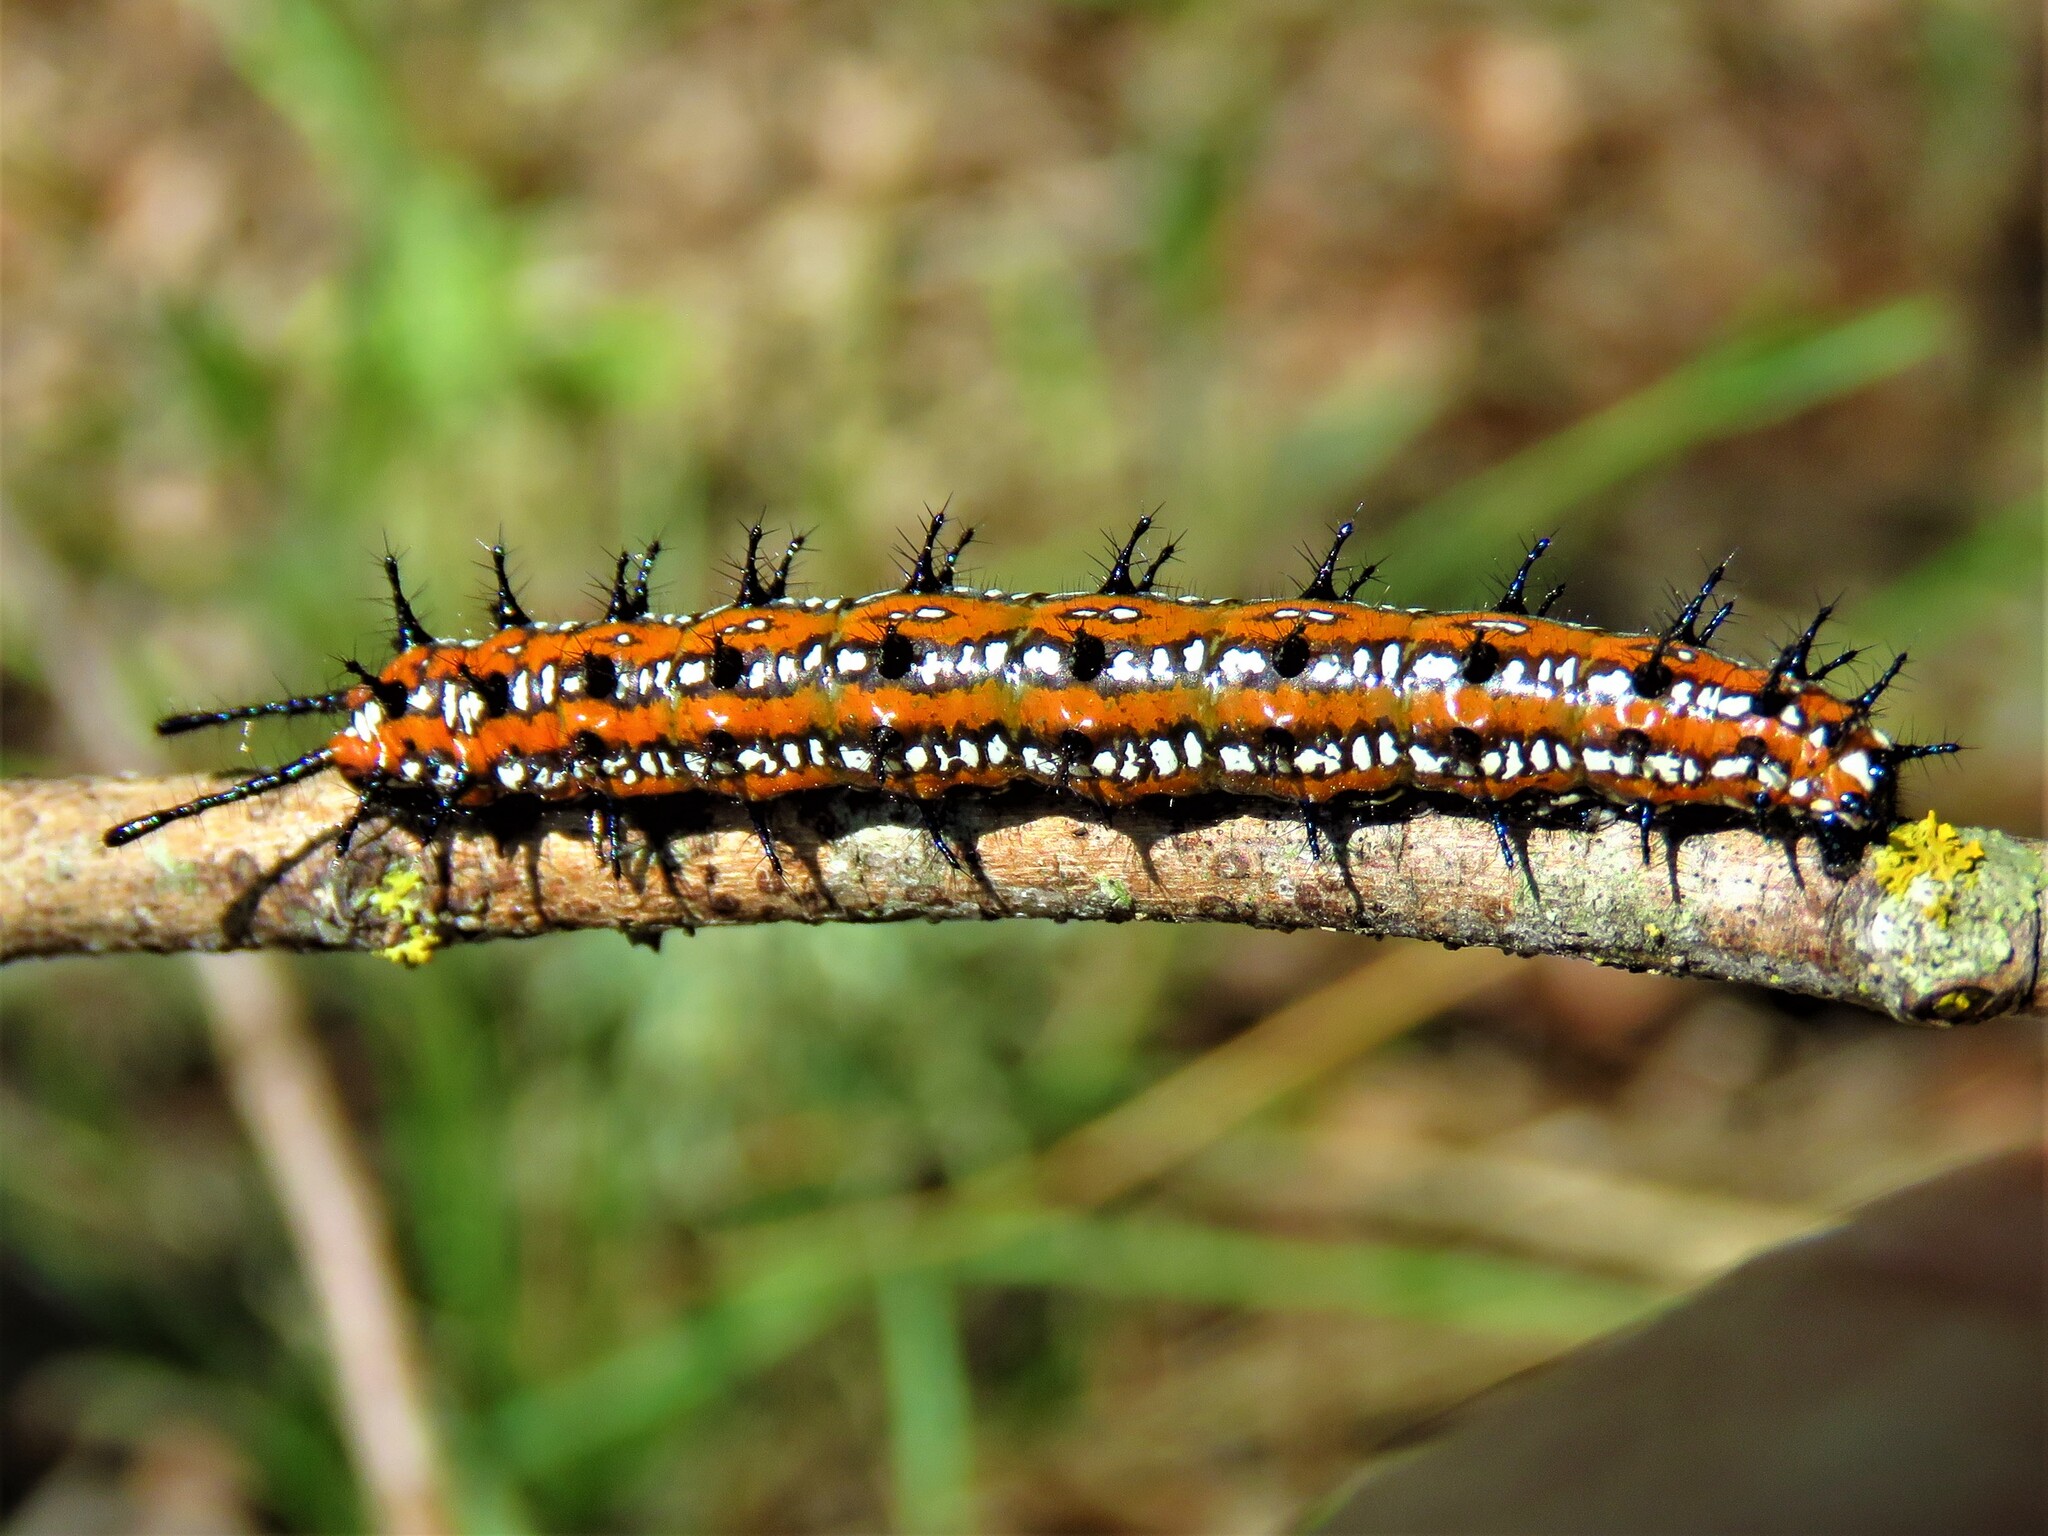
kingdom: Animalia
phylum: Arthropoda
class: Insecta
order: Lepidoptera
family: Nymphalidae
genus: Euptoieta
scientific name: Euptoieta claudia
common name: Variegated fritillary
